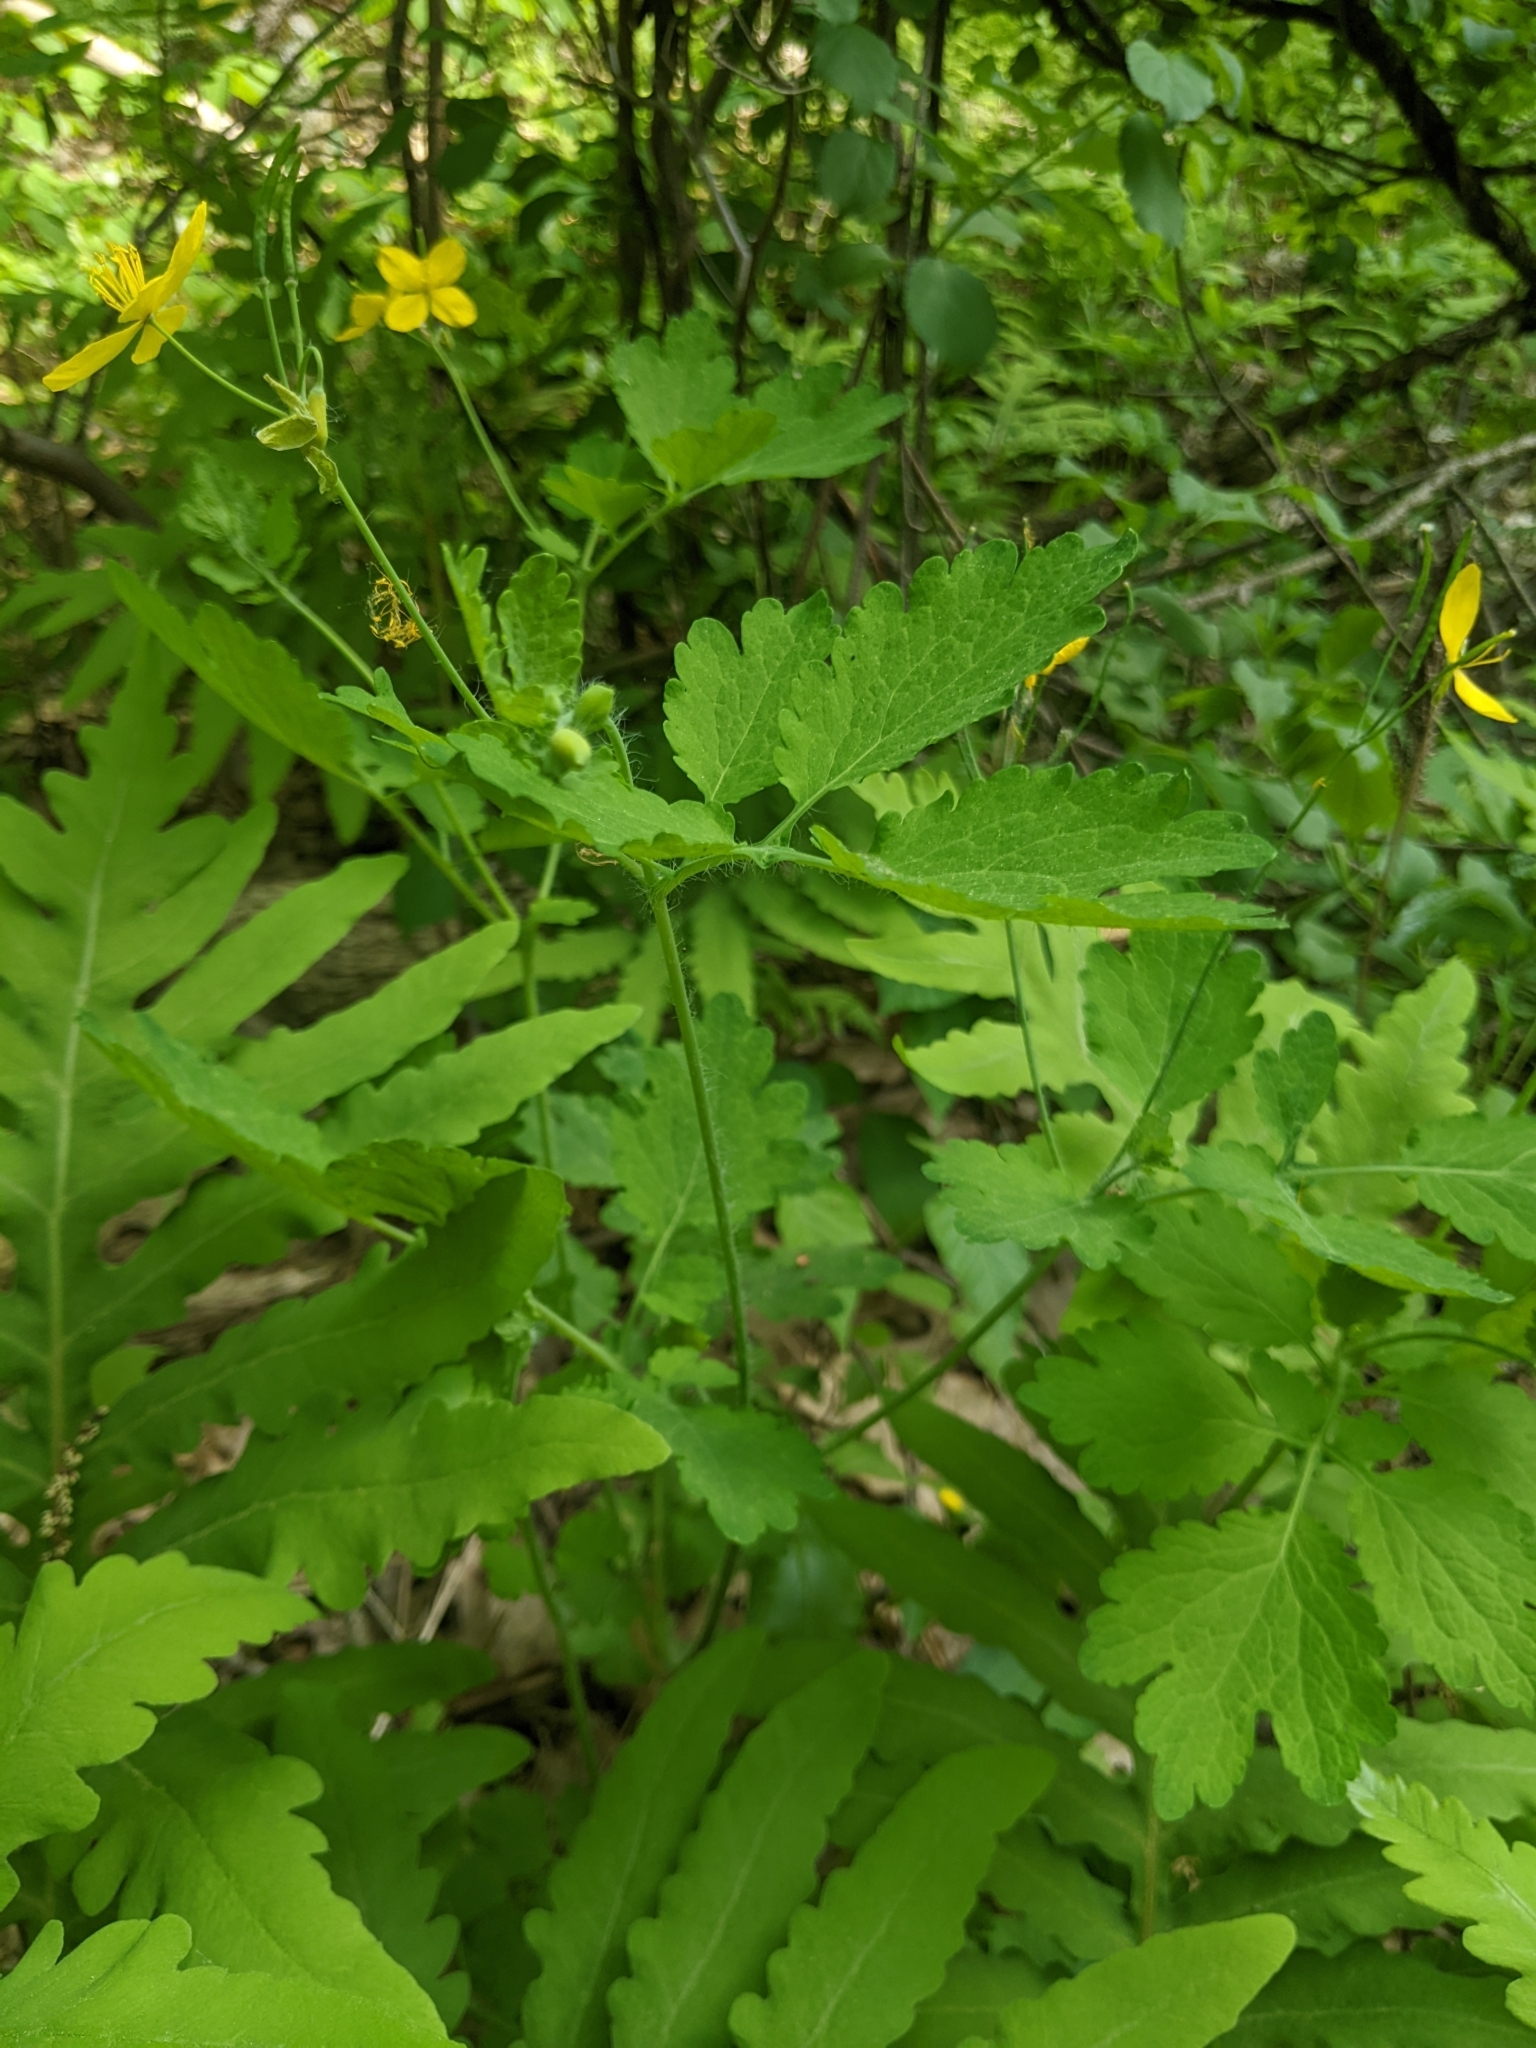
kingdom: Plantae
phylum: Tracheophyta
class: Magnoliopsida
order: Ranunculales
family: Papaveraceae
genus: Chelidonium
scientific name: Chelidonium majus
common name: Greater celandine
